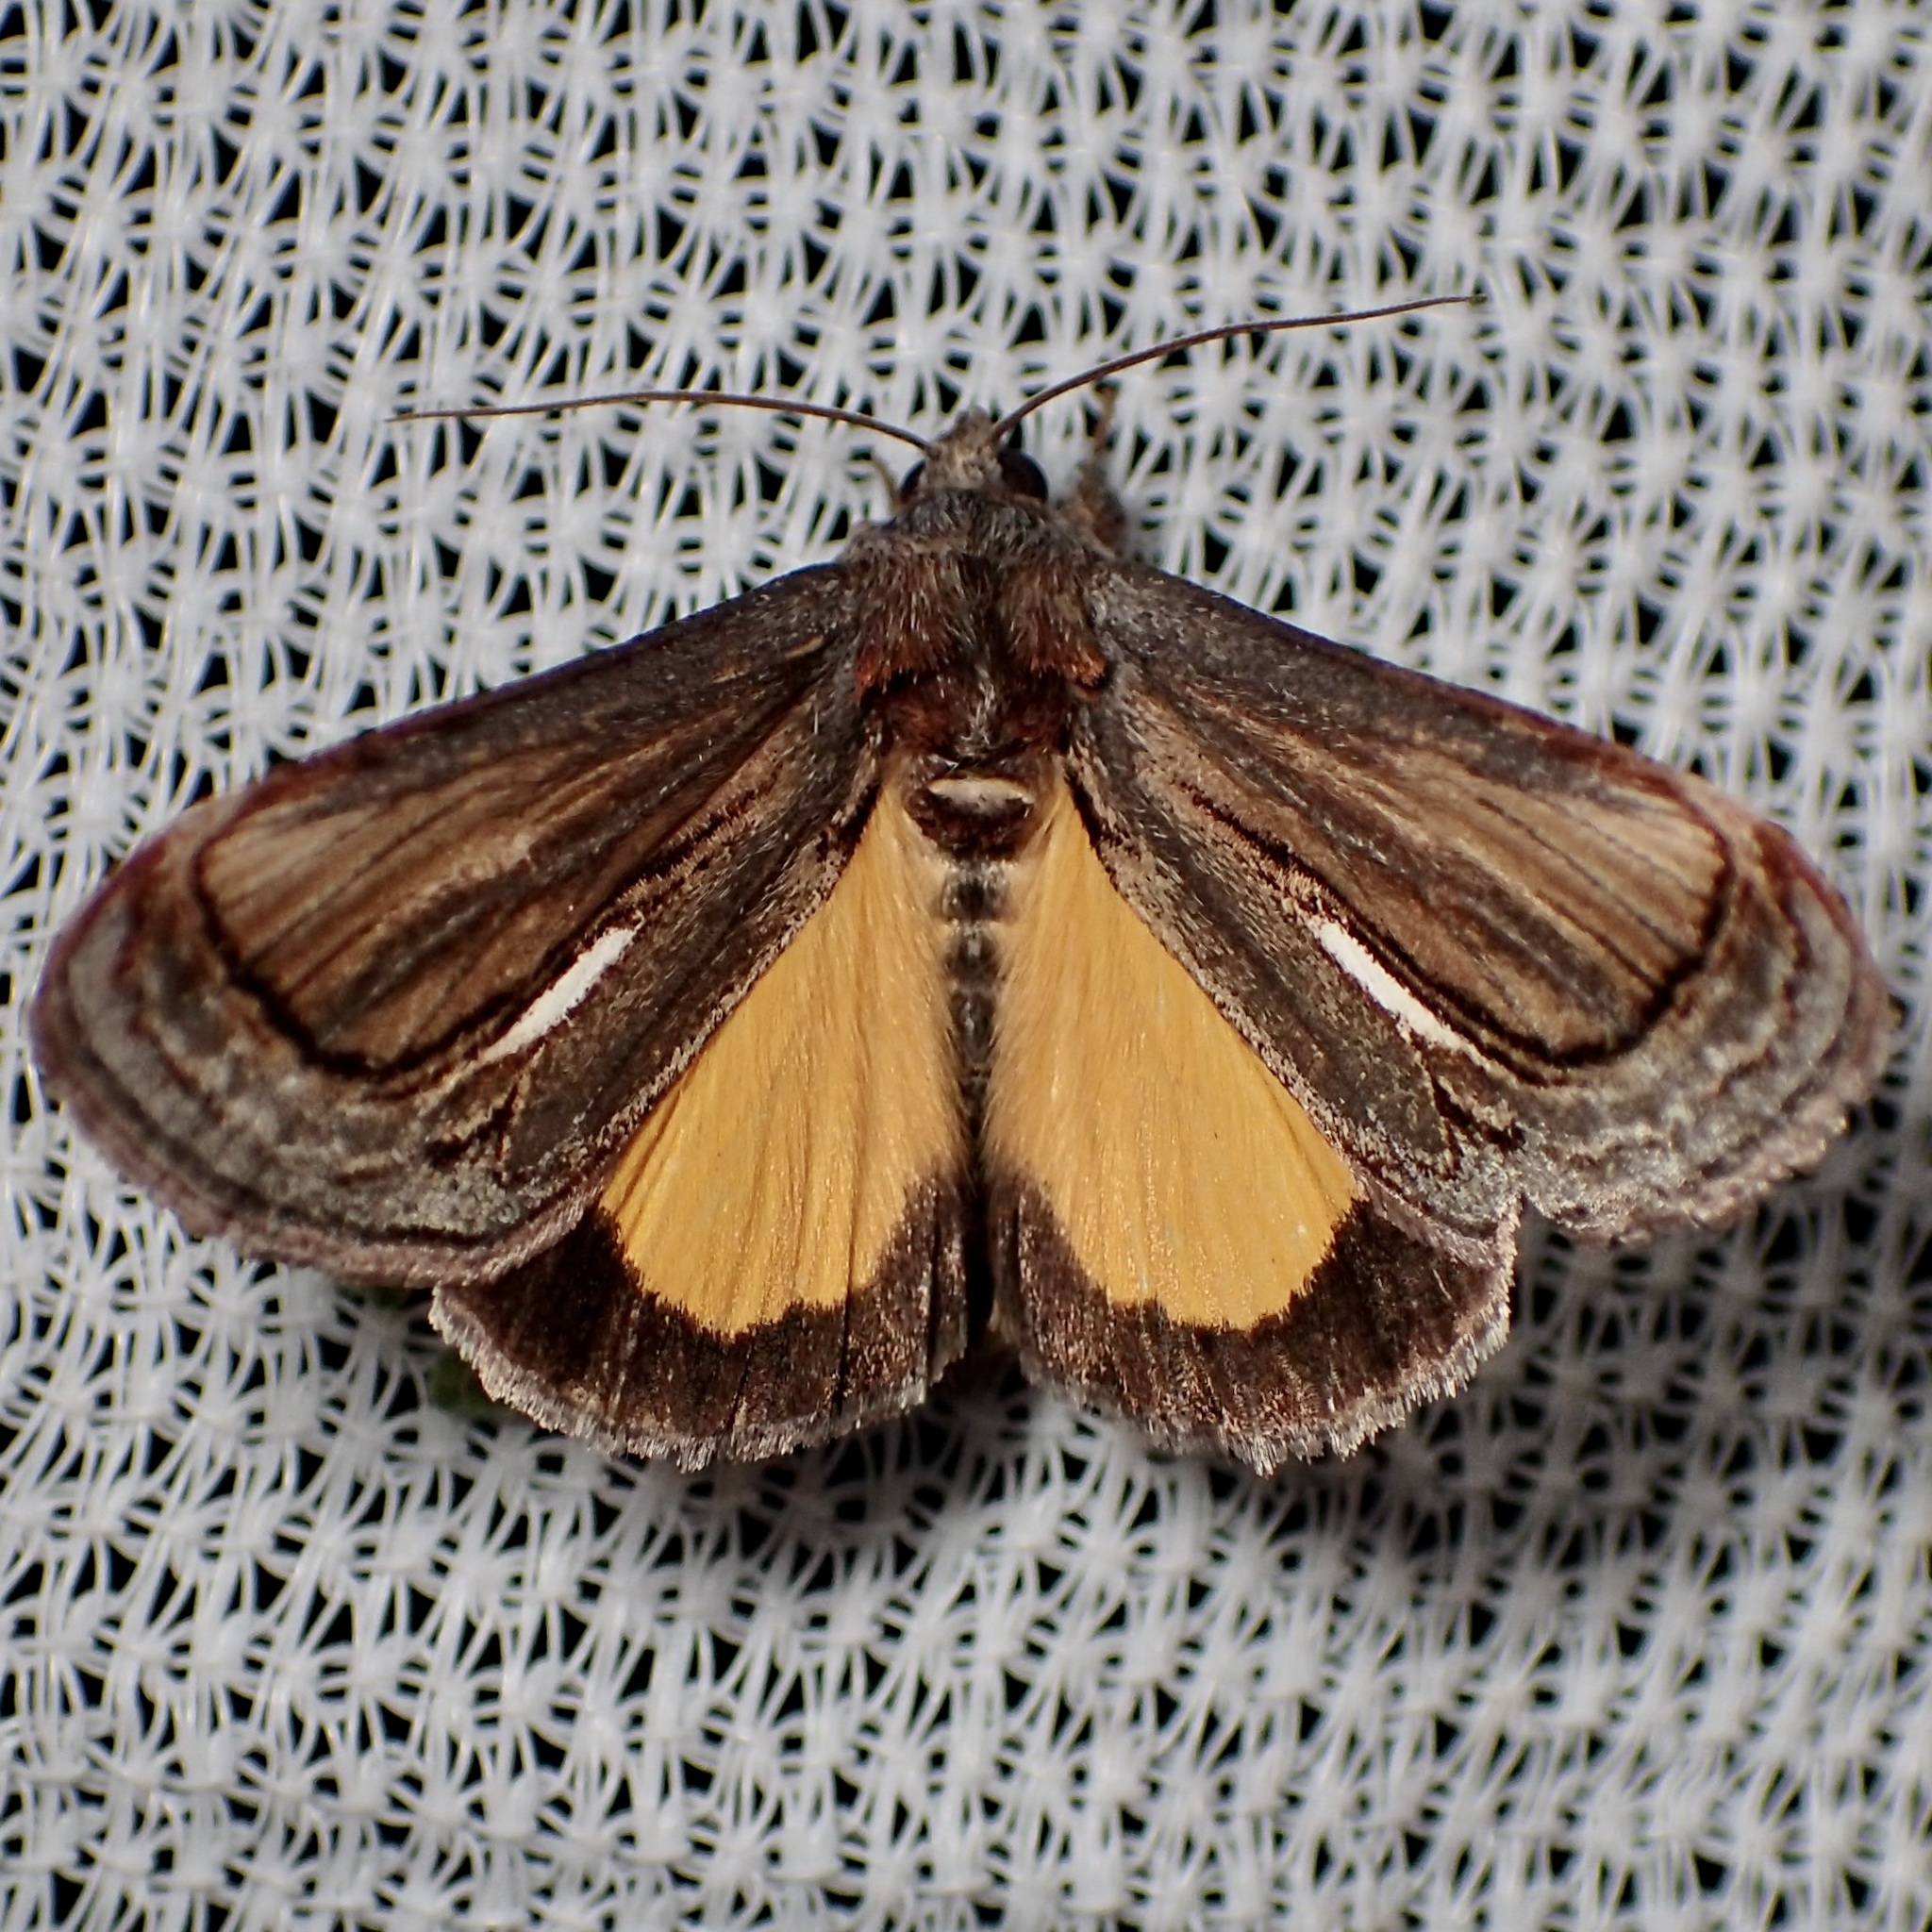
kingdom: Animalia
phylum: Arthropoda
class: Insecta
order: Lepidoptera
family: Noctuidae
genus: Gerrodes
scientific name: Gerrodes minatea
